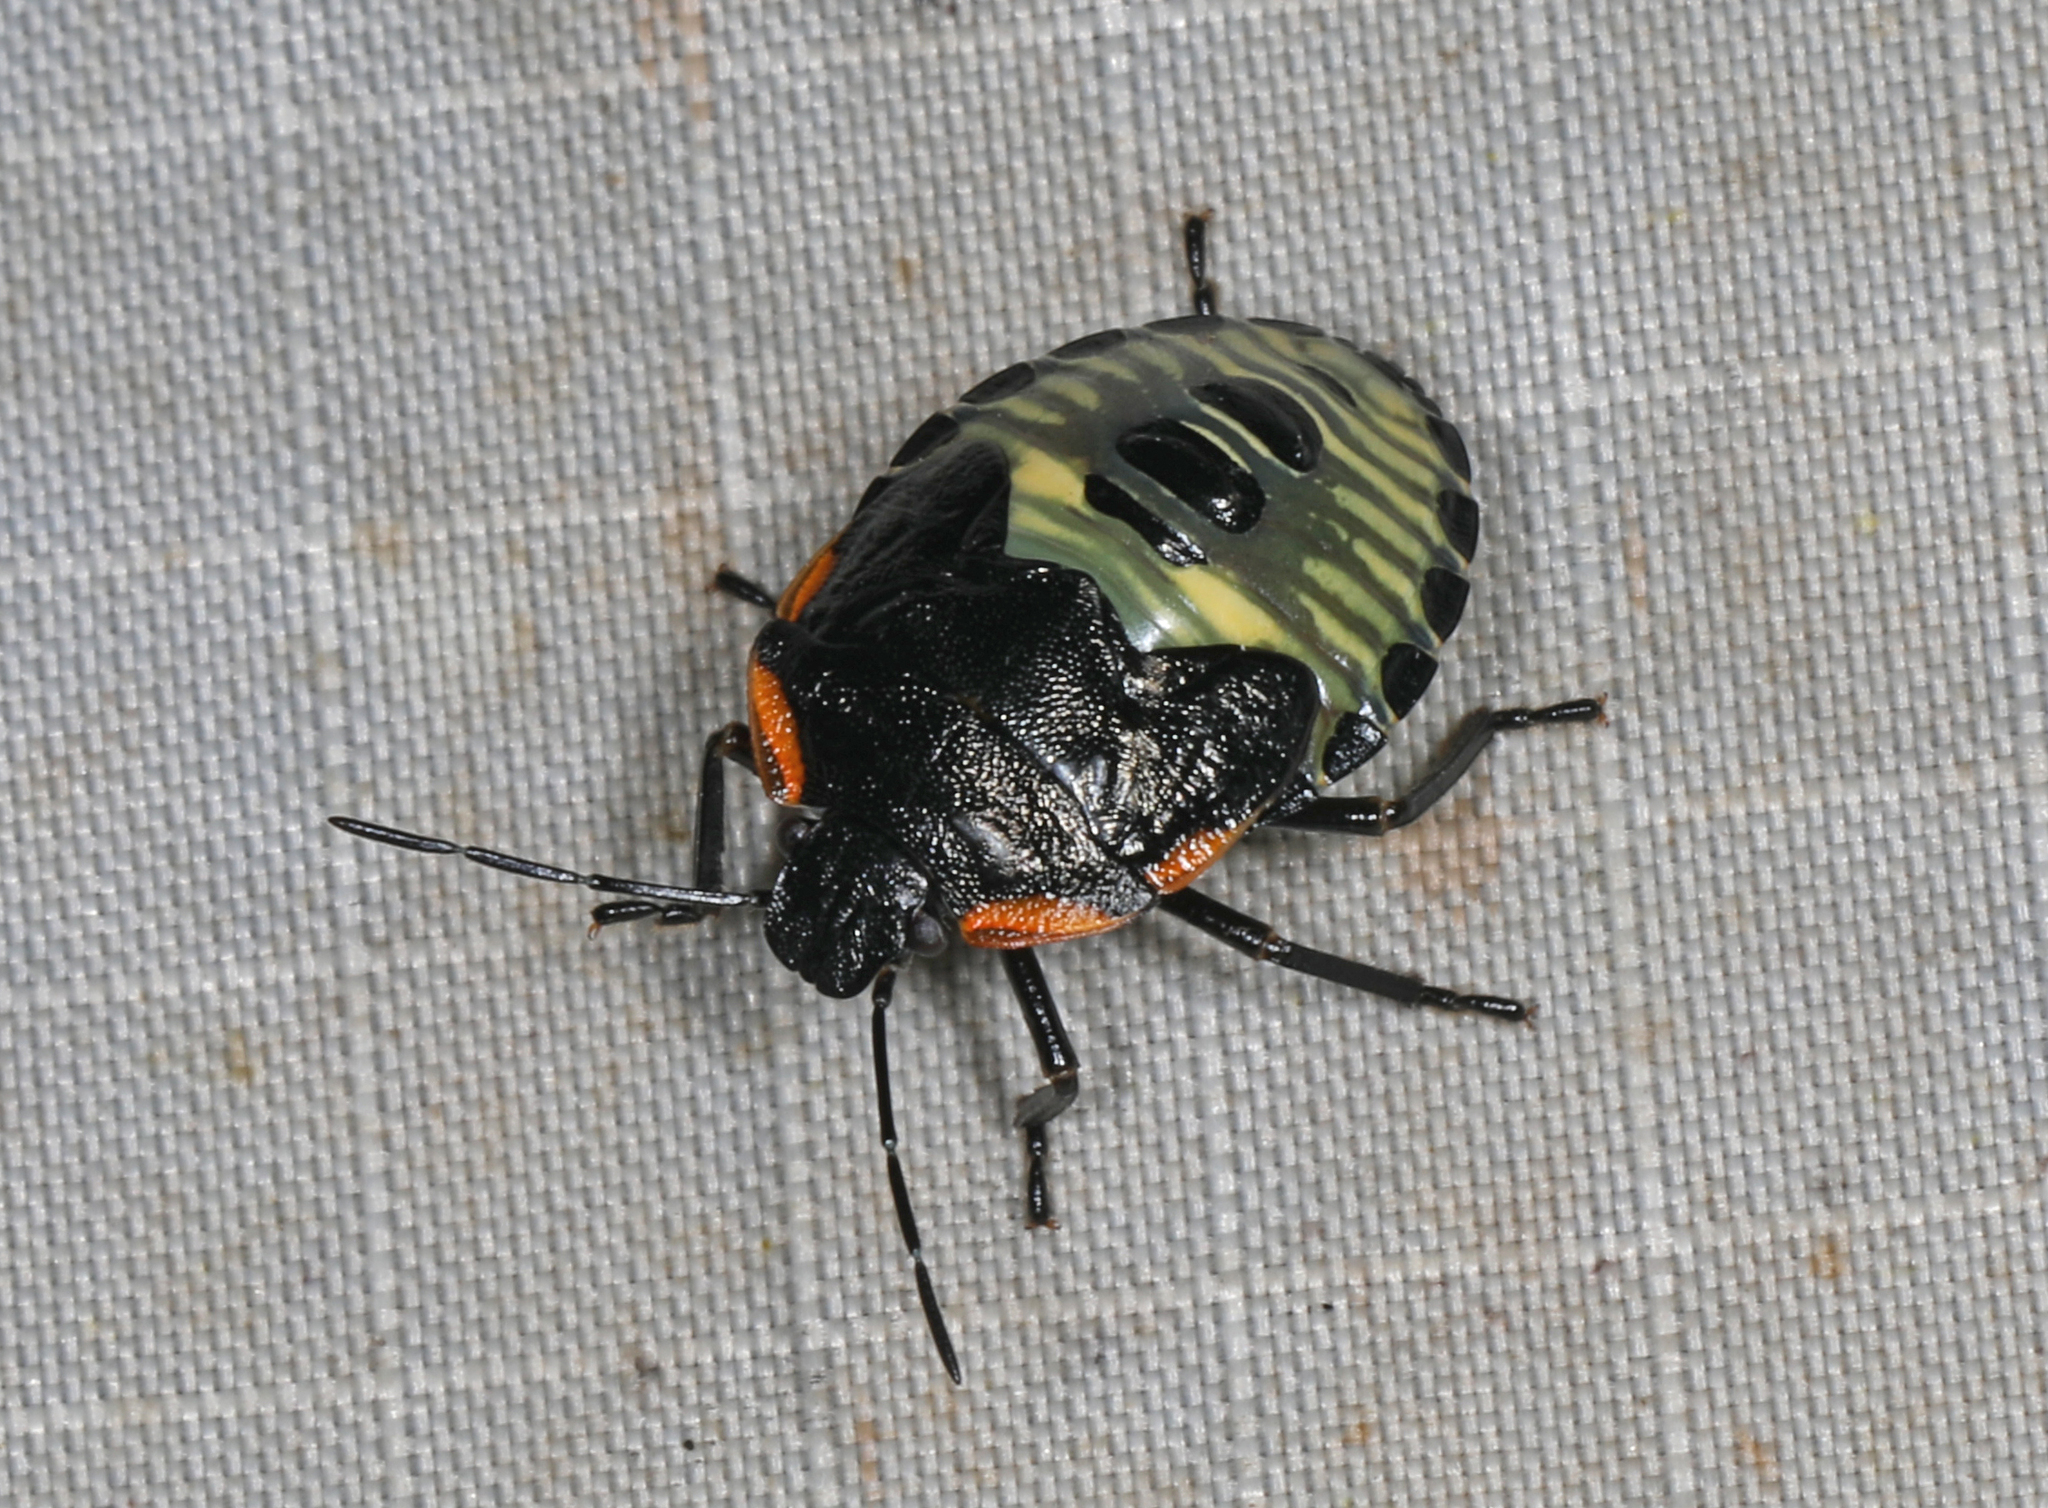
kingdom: Animalia
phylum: Arthropoda
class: Insecta
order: Hemiptera
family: Pentatomidae
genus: Chinavia
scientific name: Chinavia hilaris
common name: Green stink bug
